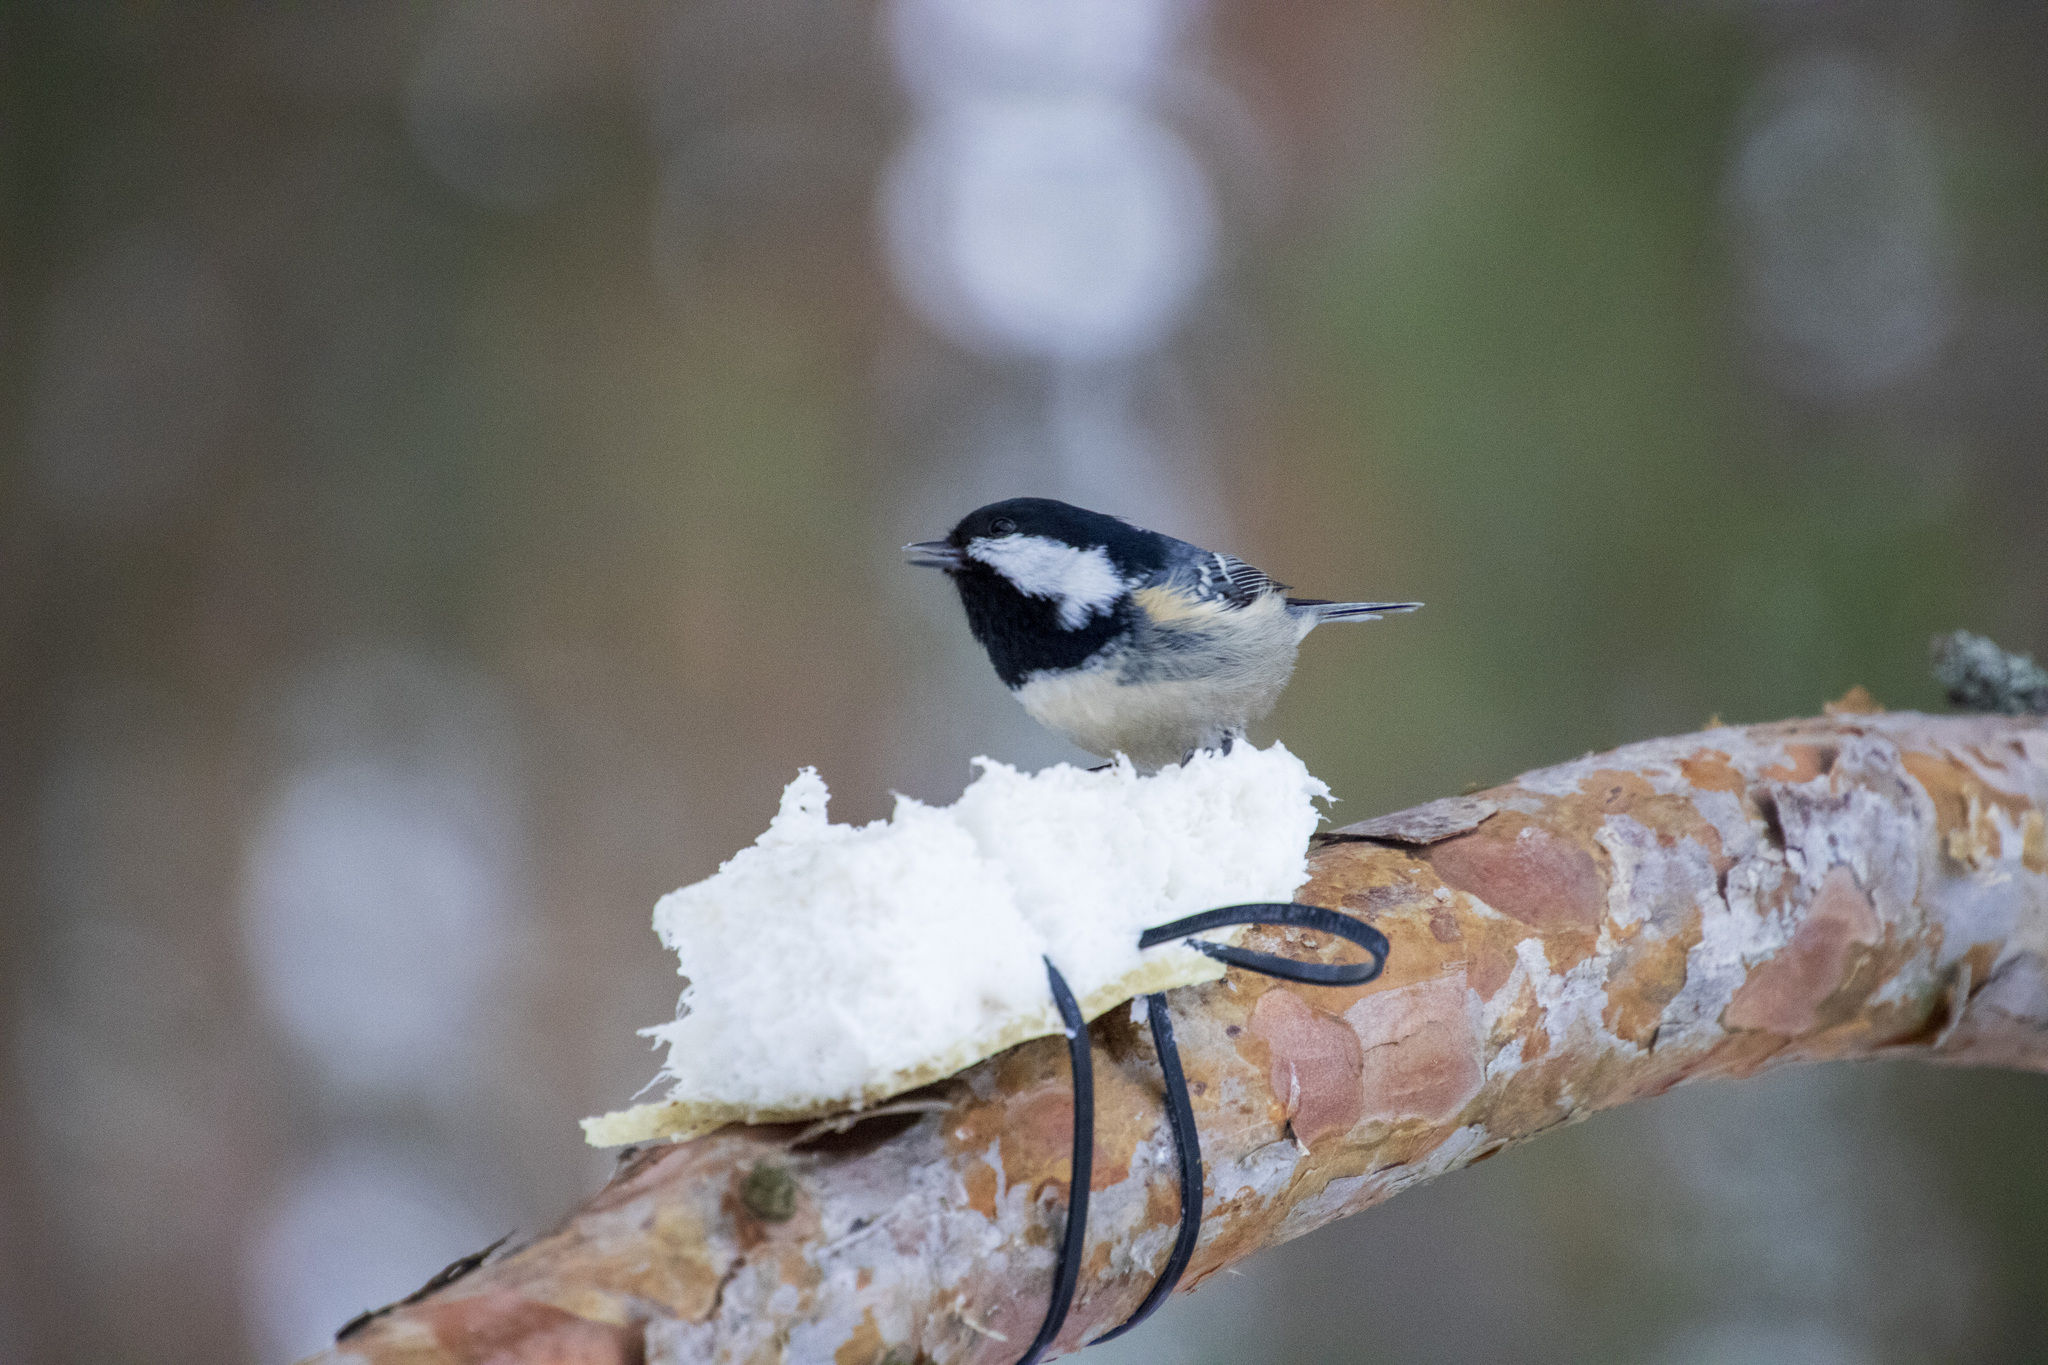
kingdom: Animalia
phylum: Chordata
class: Aves
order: Passeriformes
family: Paridae
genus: Periparus
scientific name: Periparus ater
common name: Coal tit
